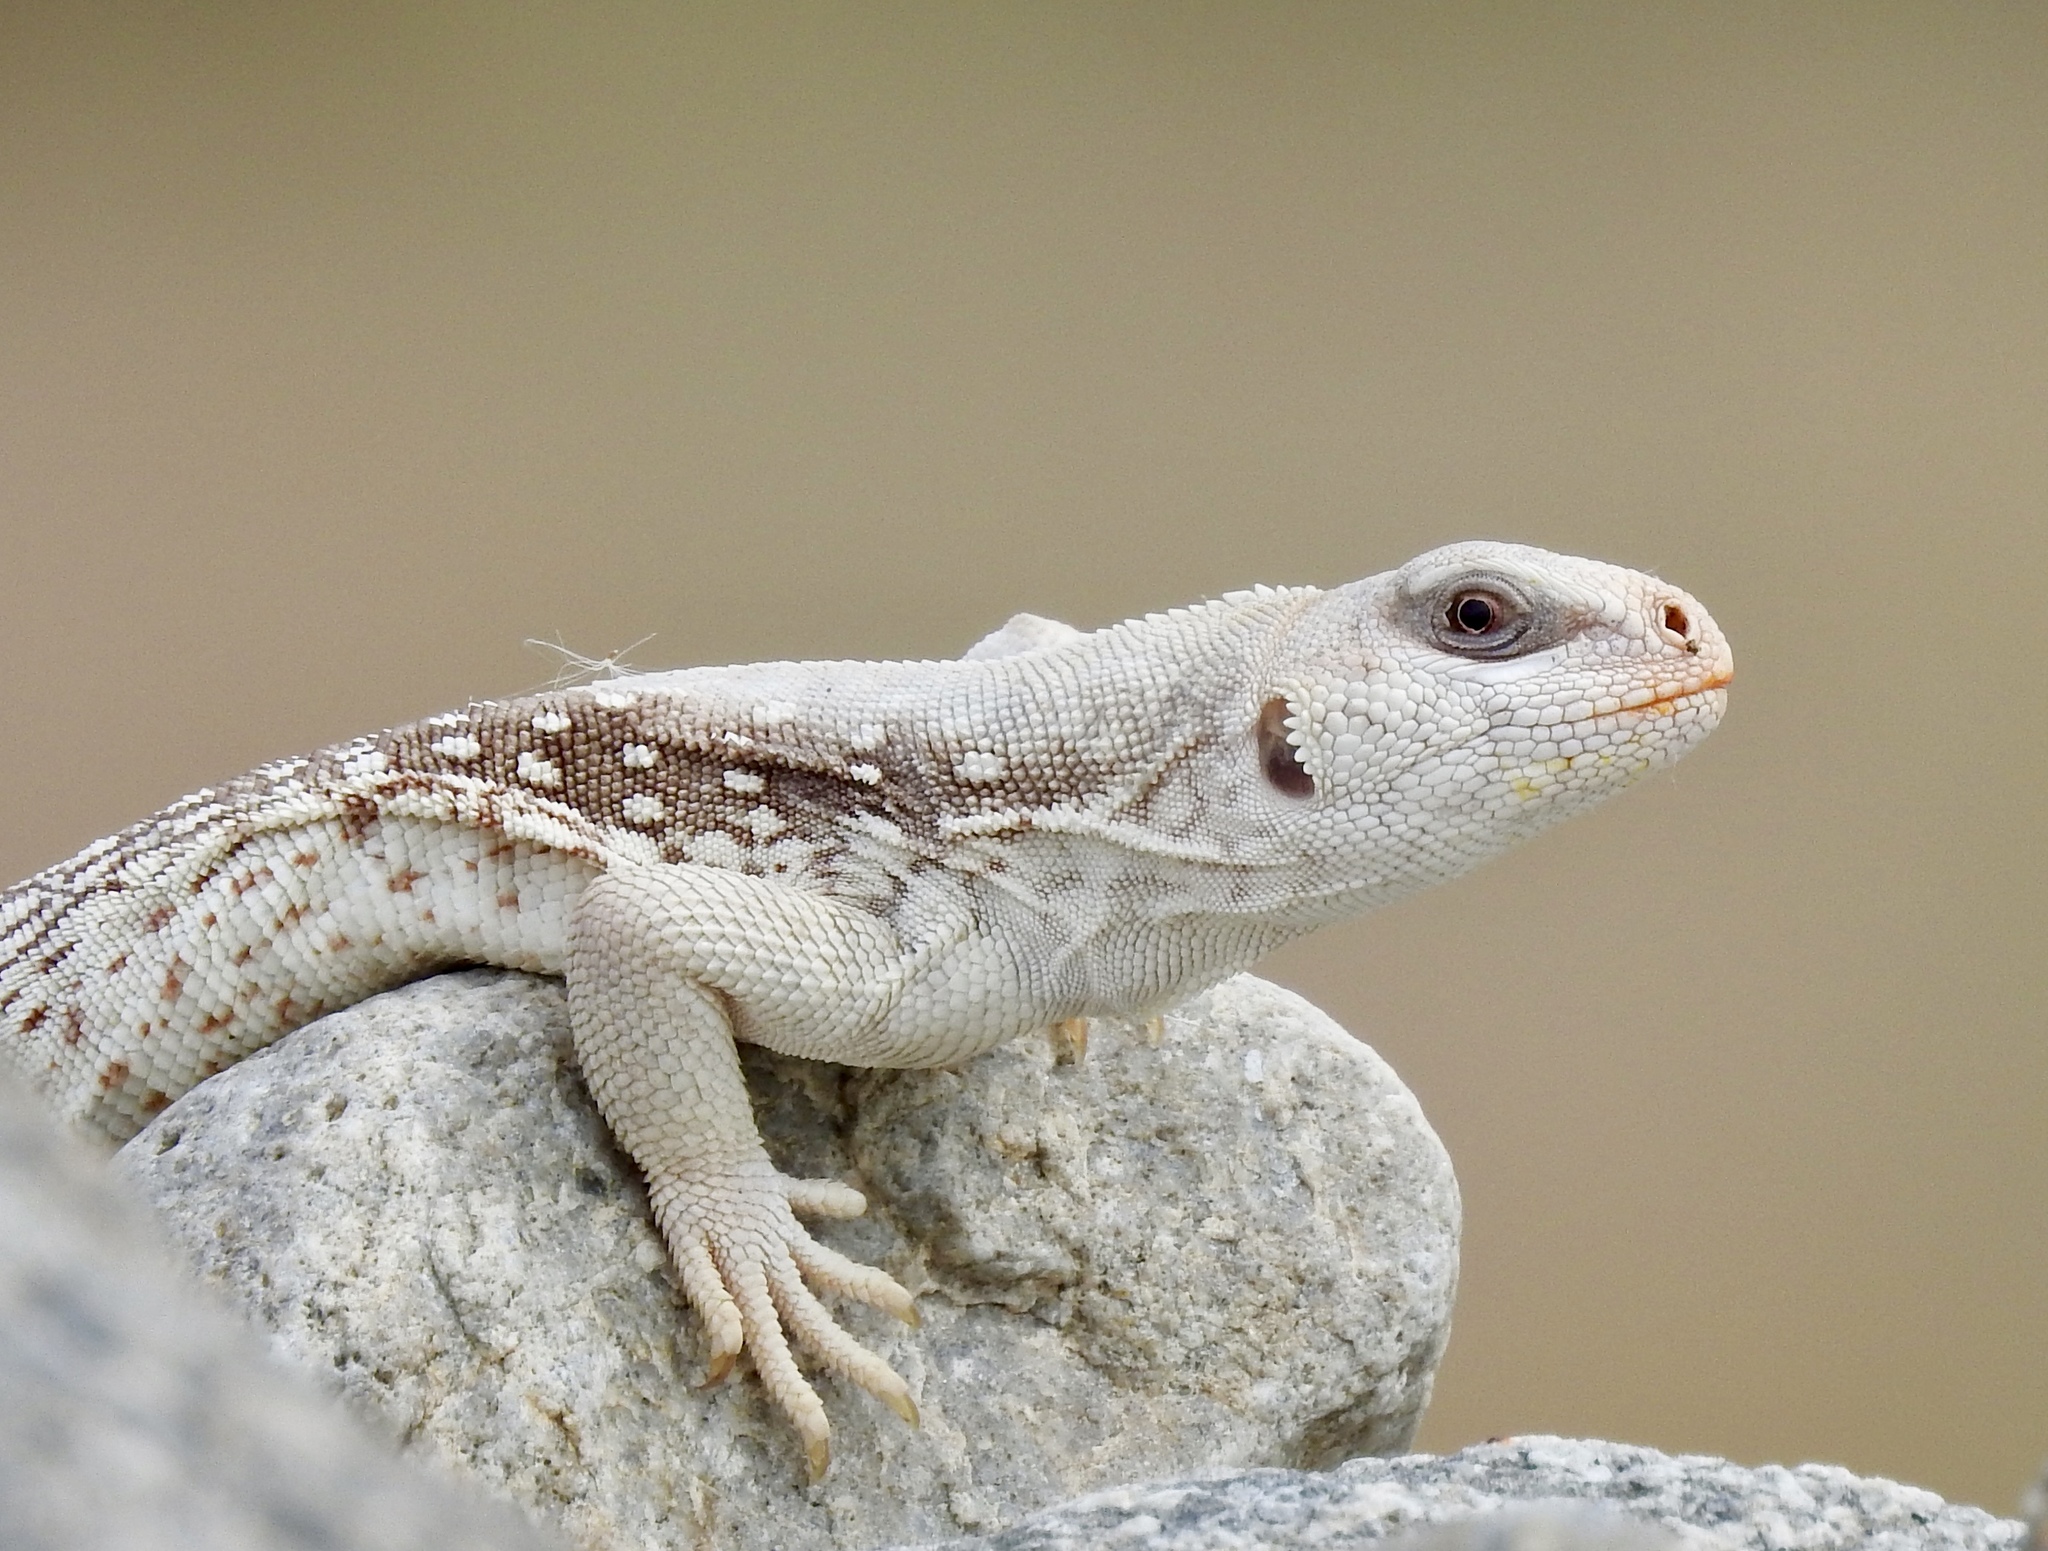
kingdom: Animalia
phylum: Chordata
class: Squamata
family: Iguanidae
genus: Dipsosaurus
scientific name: Dipsosaurus dorsalis
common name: Desert iguana
